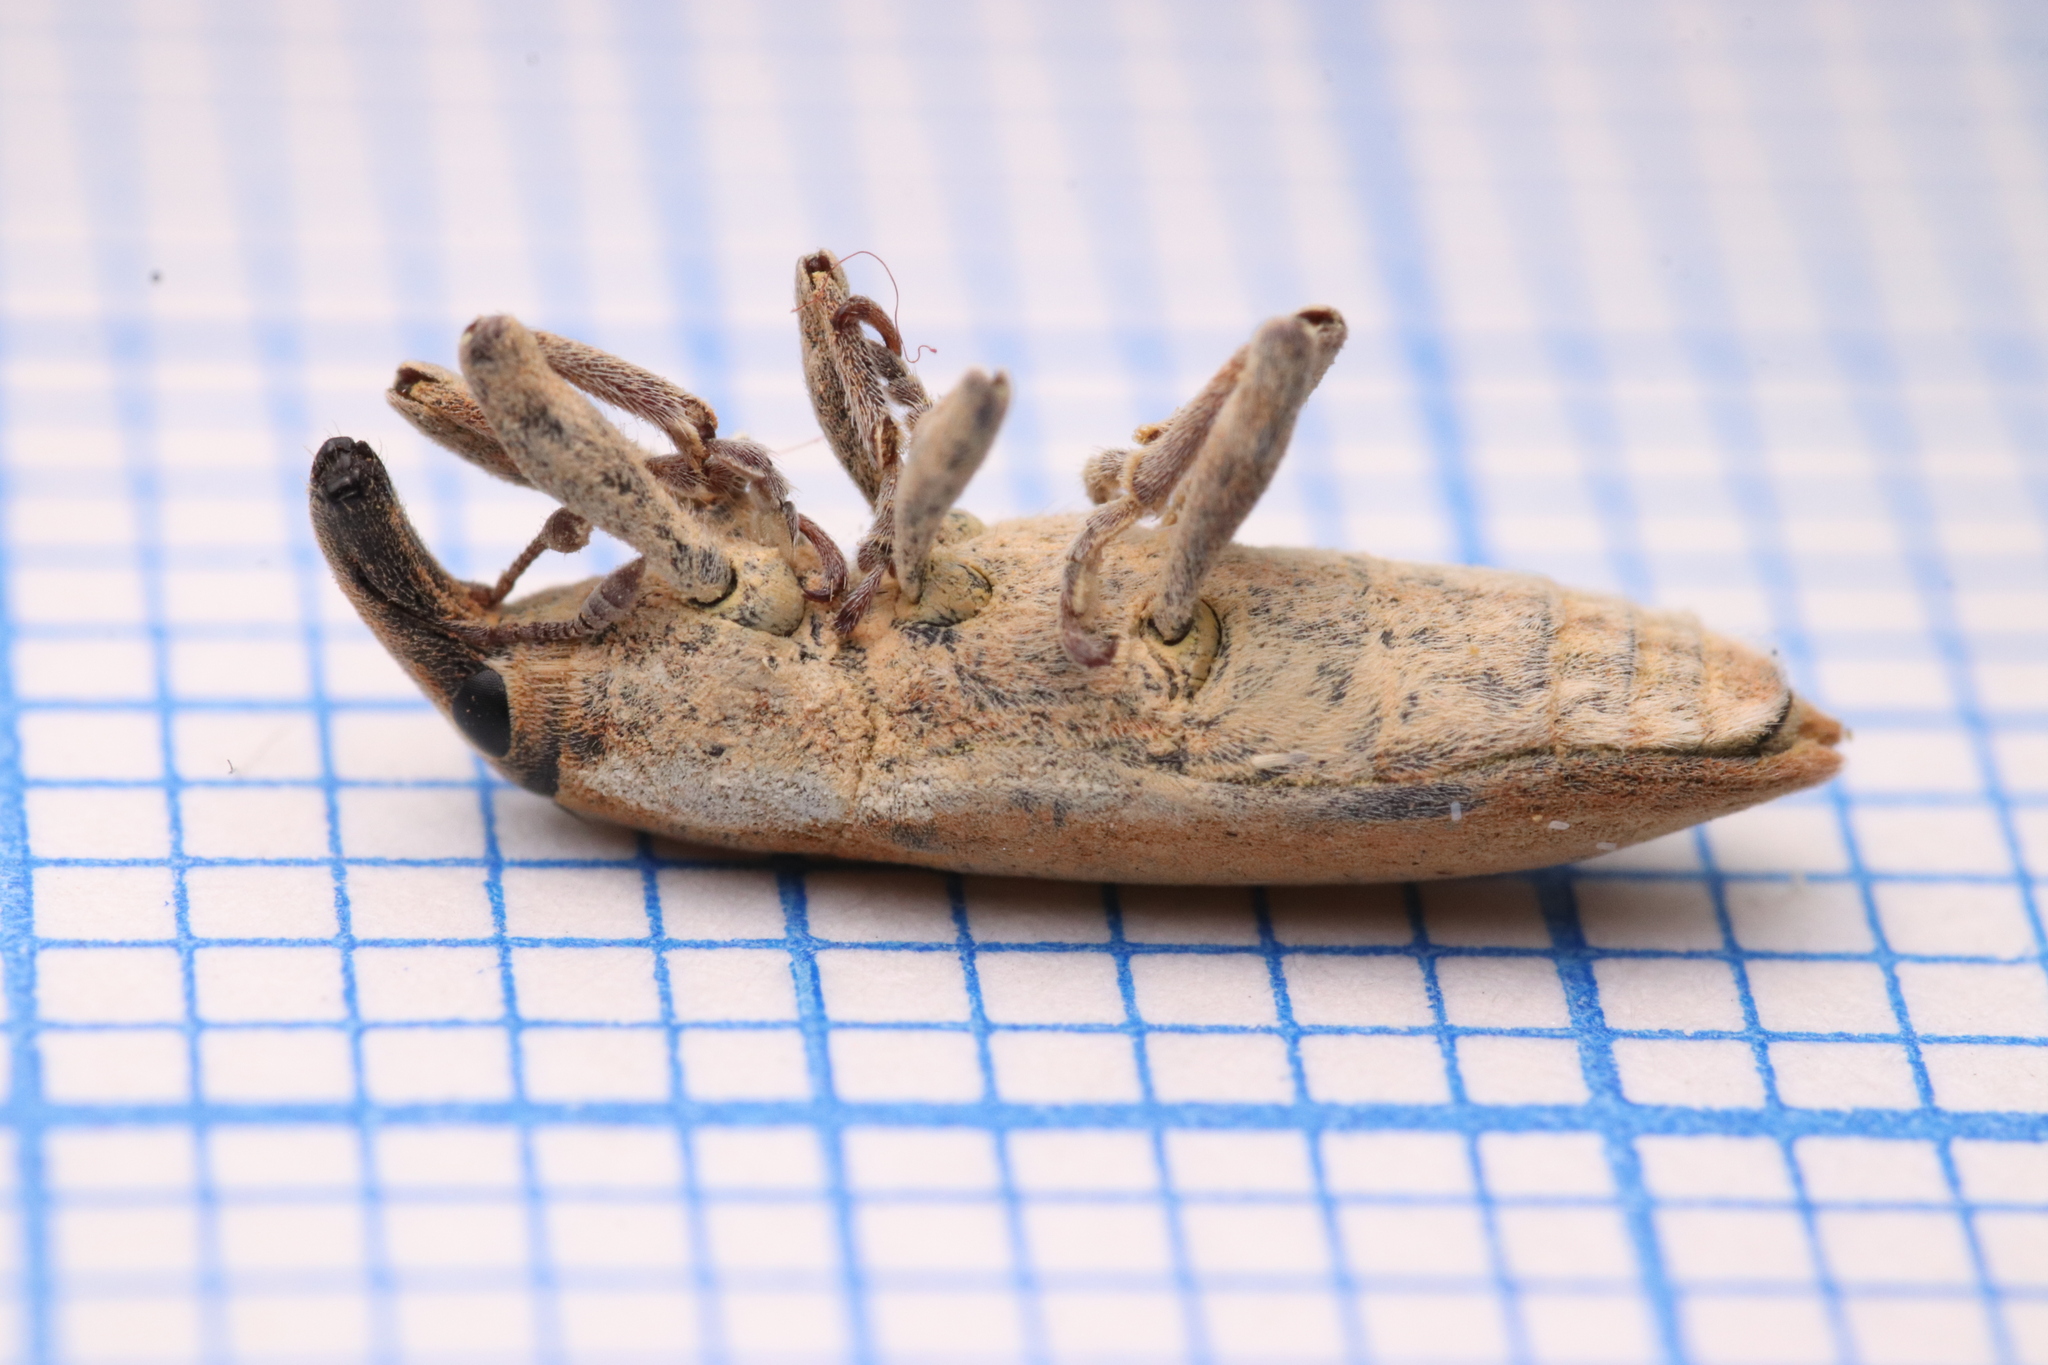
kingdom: Animalia
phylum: Arthropoda
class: Insecta
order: Coleoptera
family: Curculionidae
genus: Lixus
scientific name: Lixus acicularis
